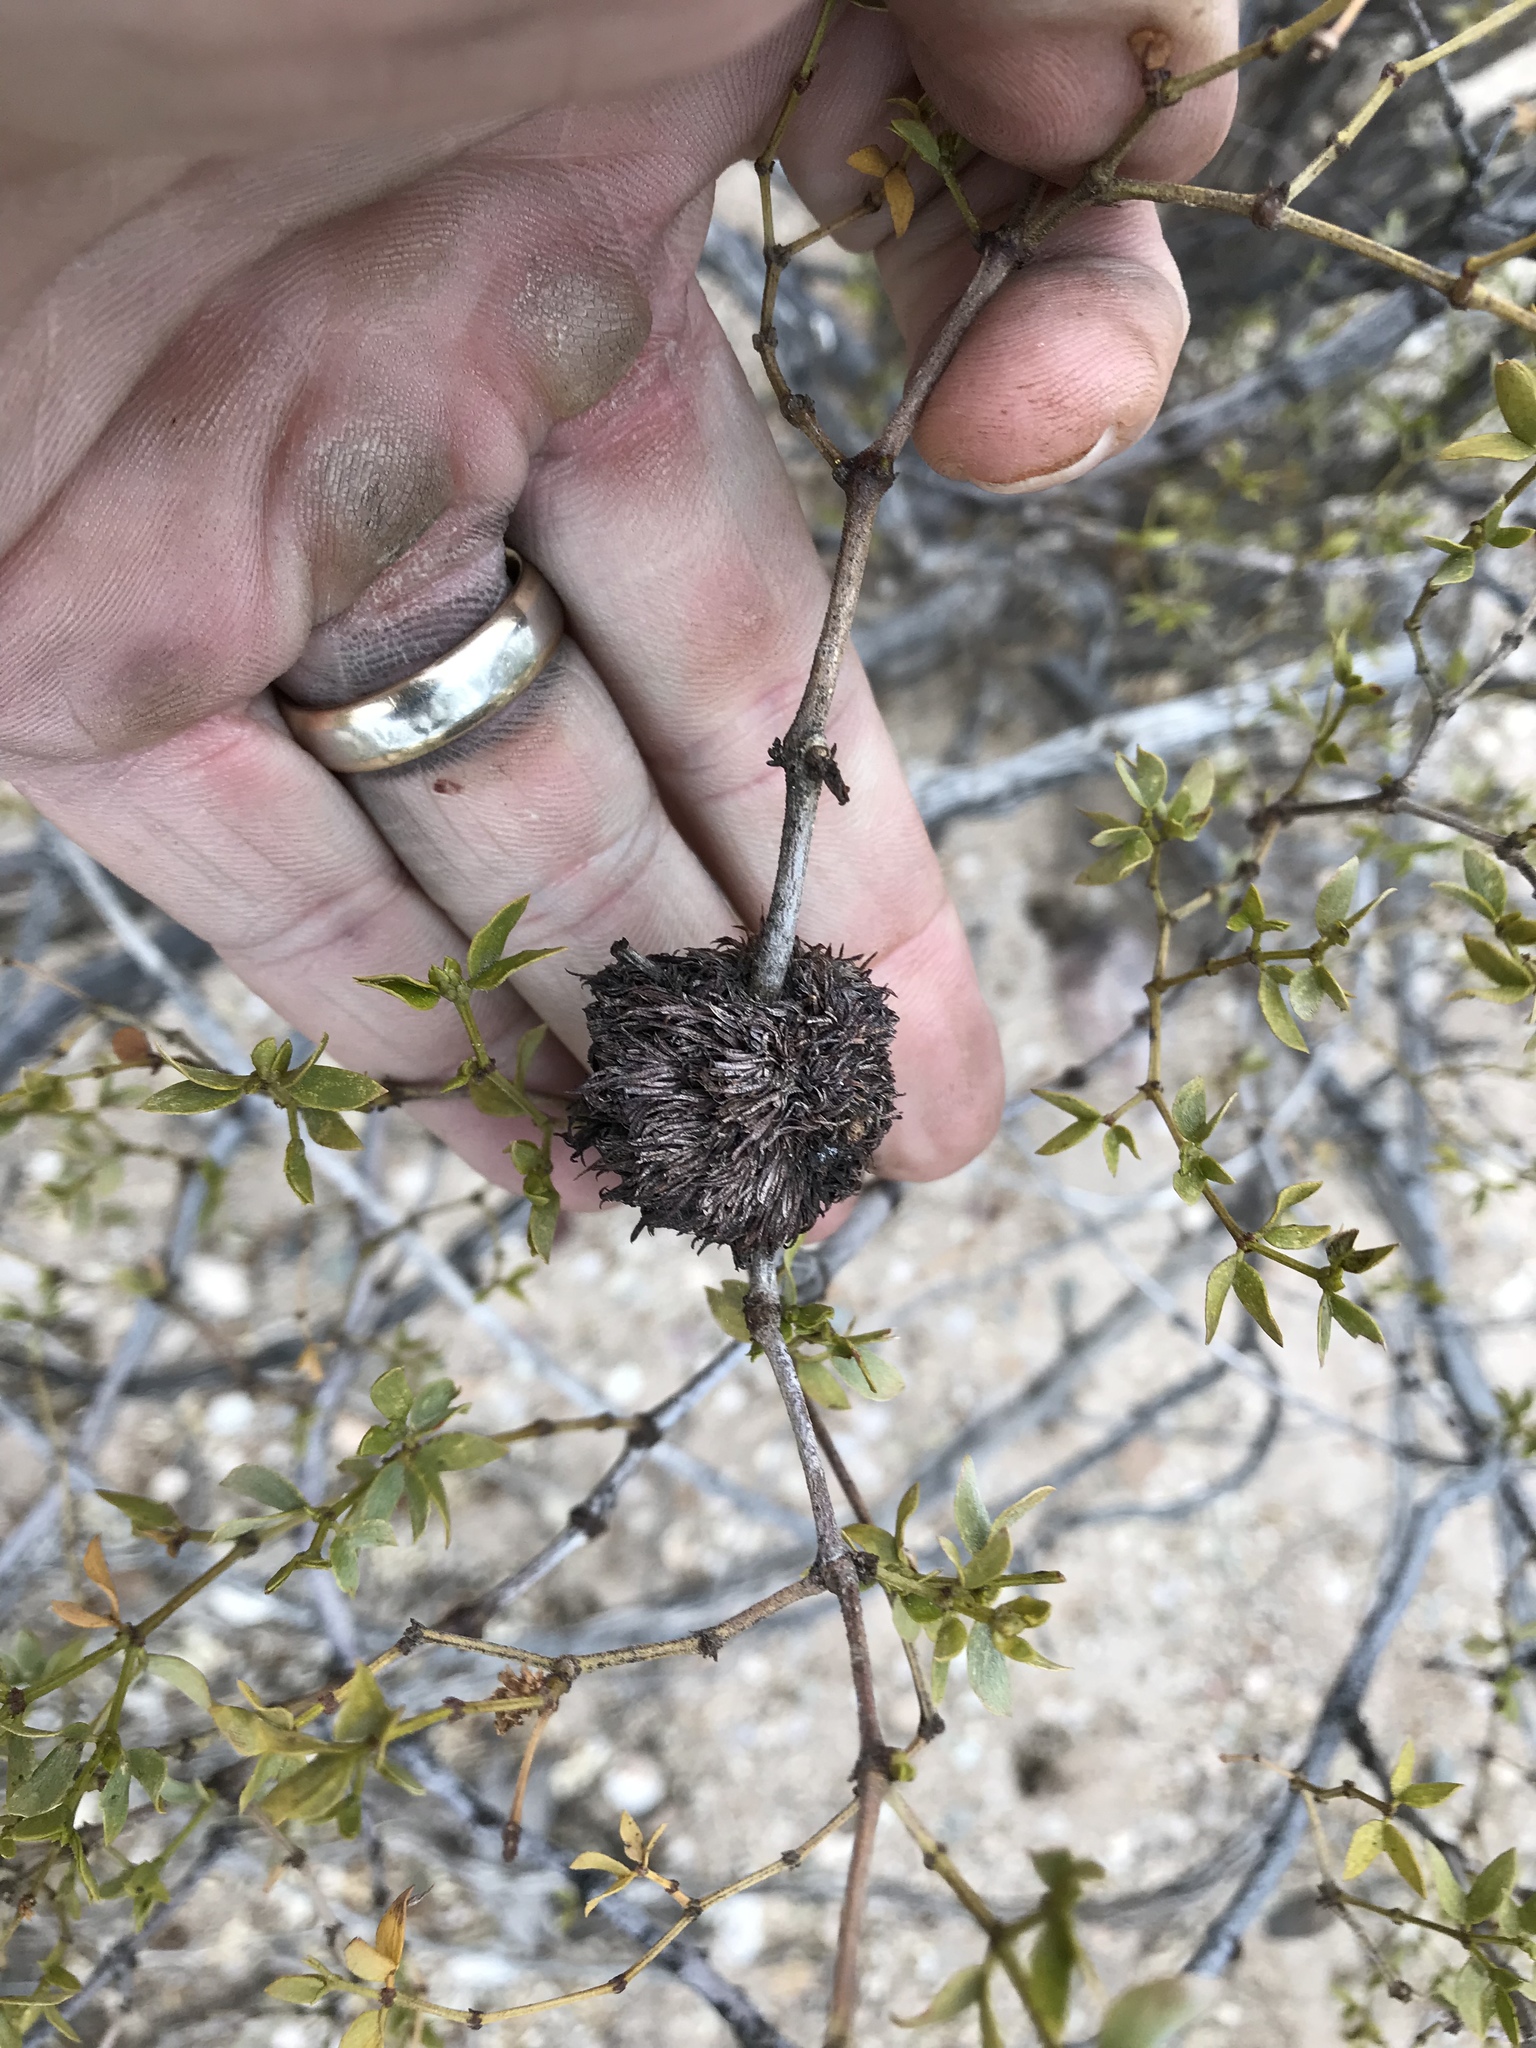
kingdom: Animalia
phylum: Arthropoda
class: Insecta
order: Diptera
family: Cecidomyiidae
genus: Asphondylia
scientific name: Asphondylia auripila
